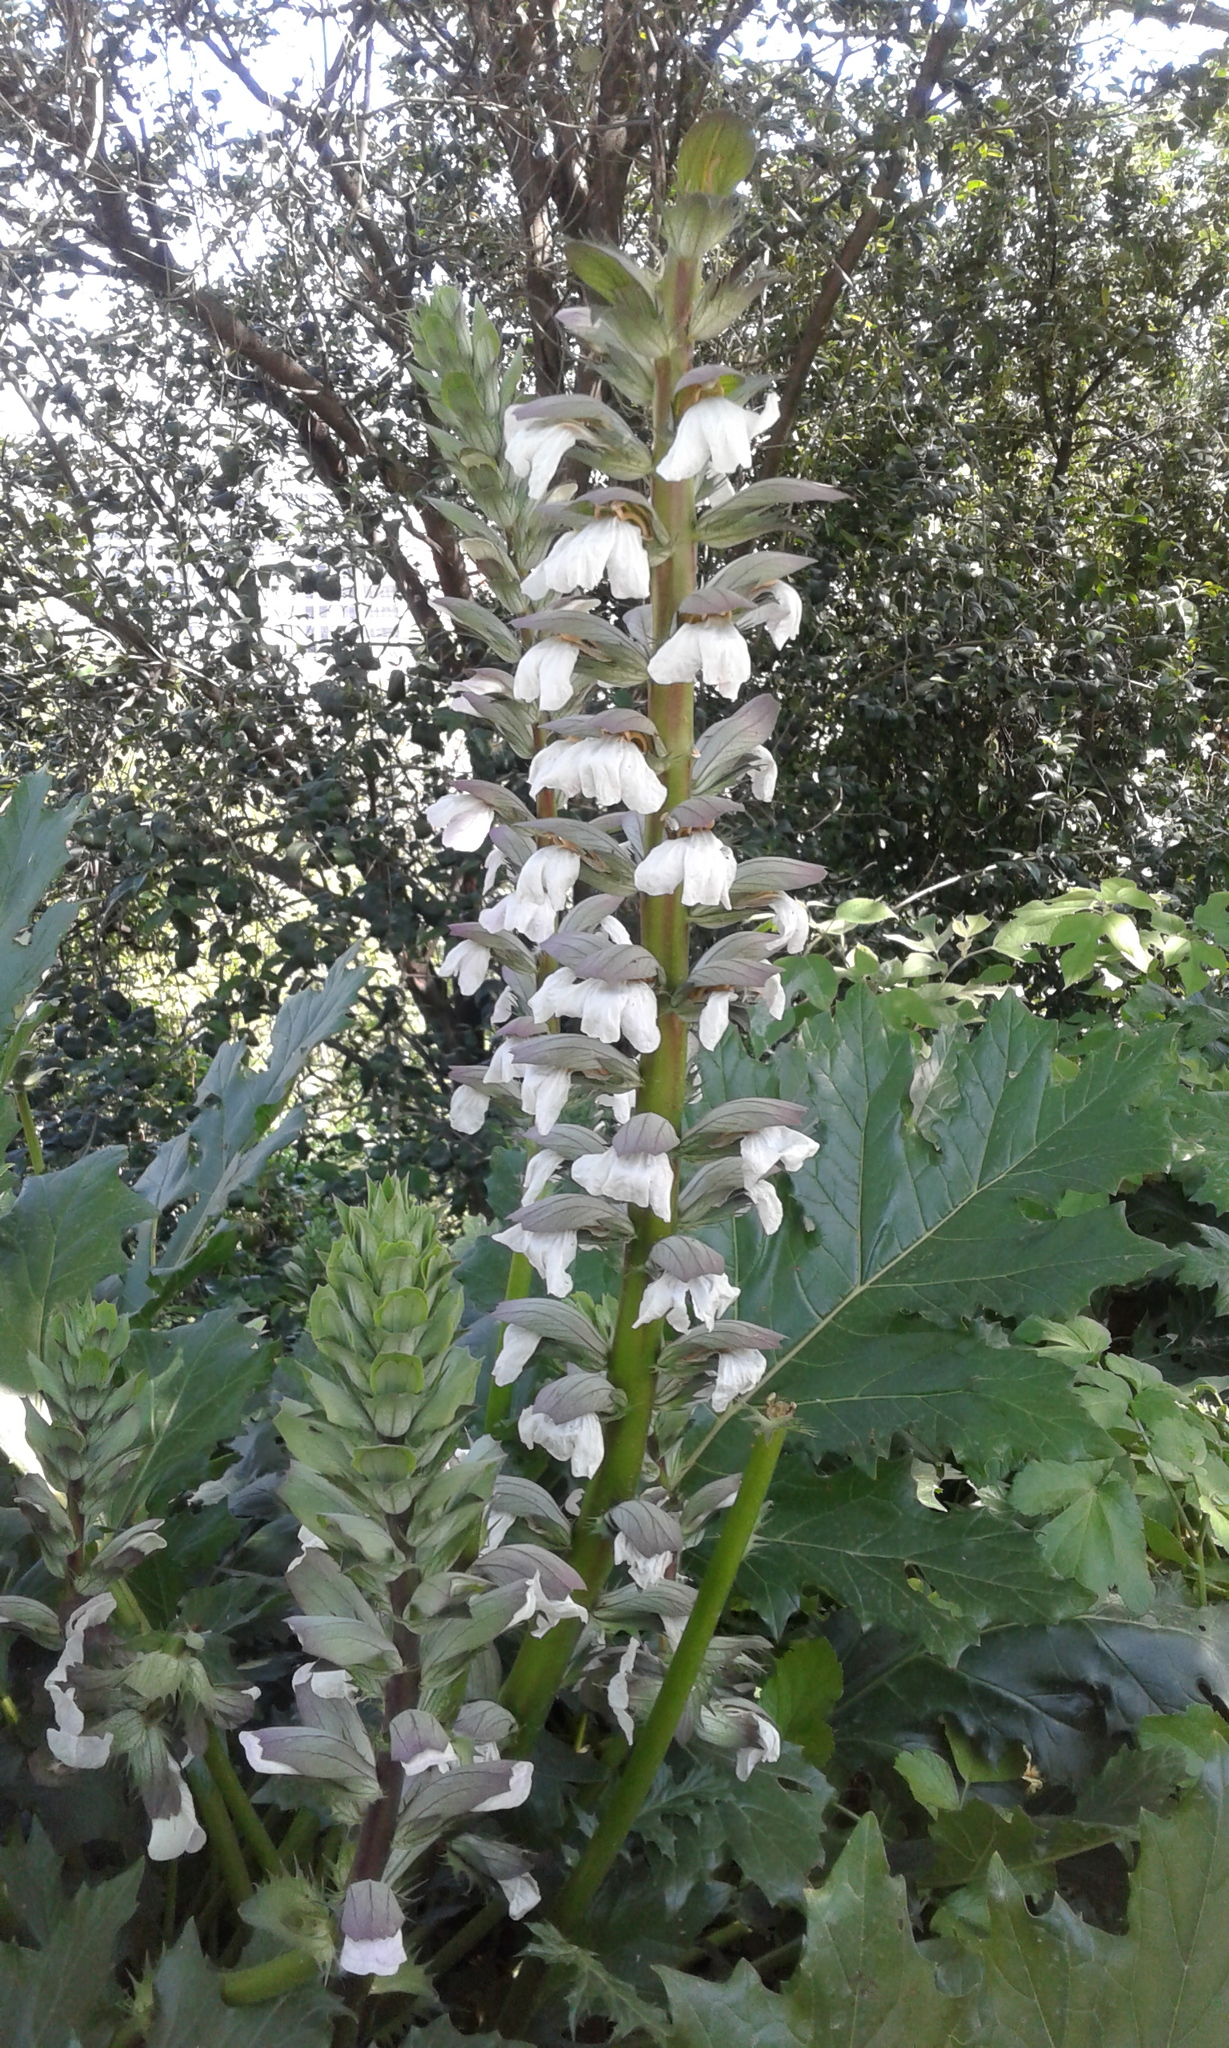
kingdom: Plantae
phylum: Tracheophyta
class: Magnoliopsida
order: Lamiales
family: Acanthaceae
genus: Acanthus
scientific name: Acanthus mollis
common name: Bear's-breech
